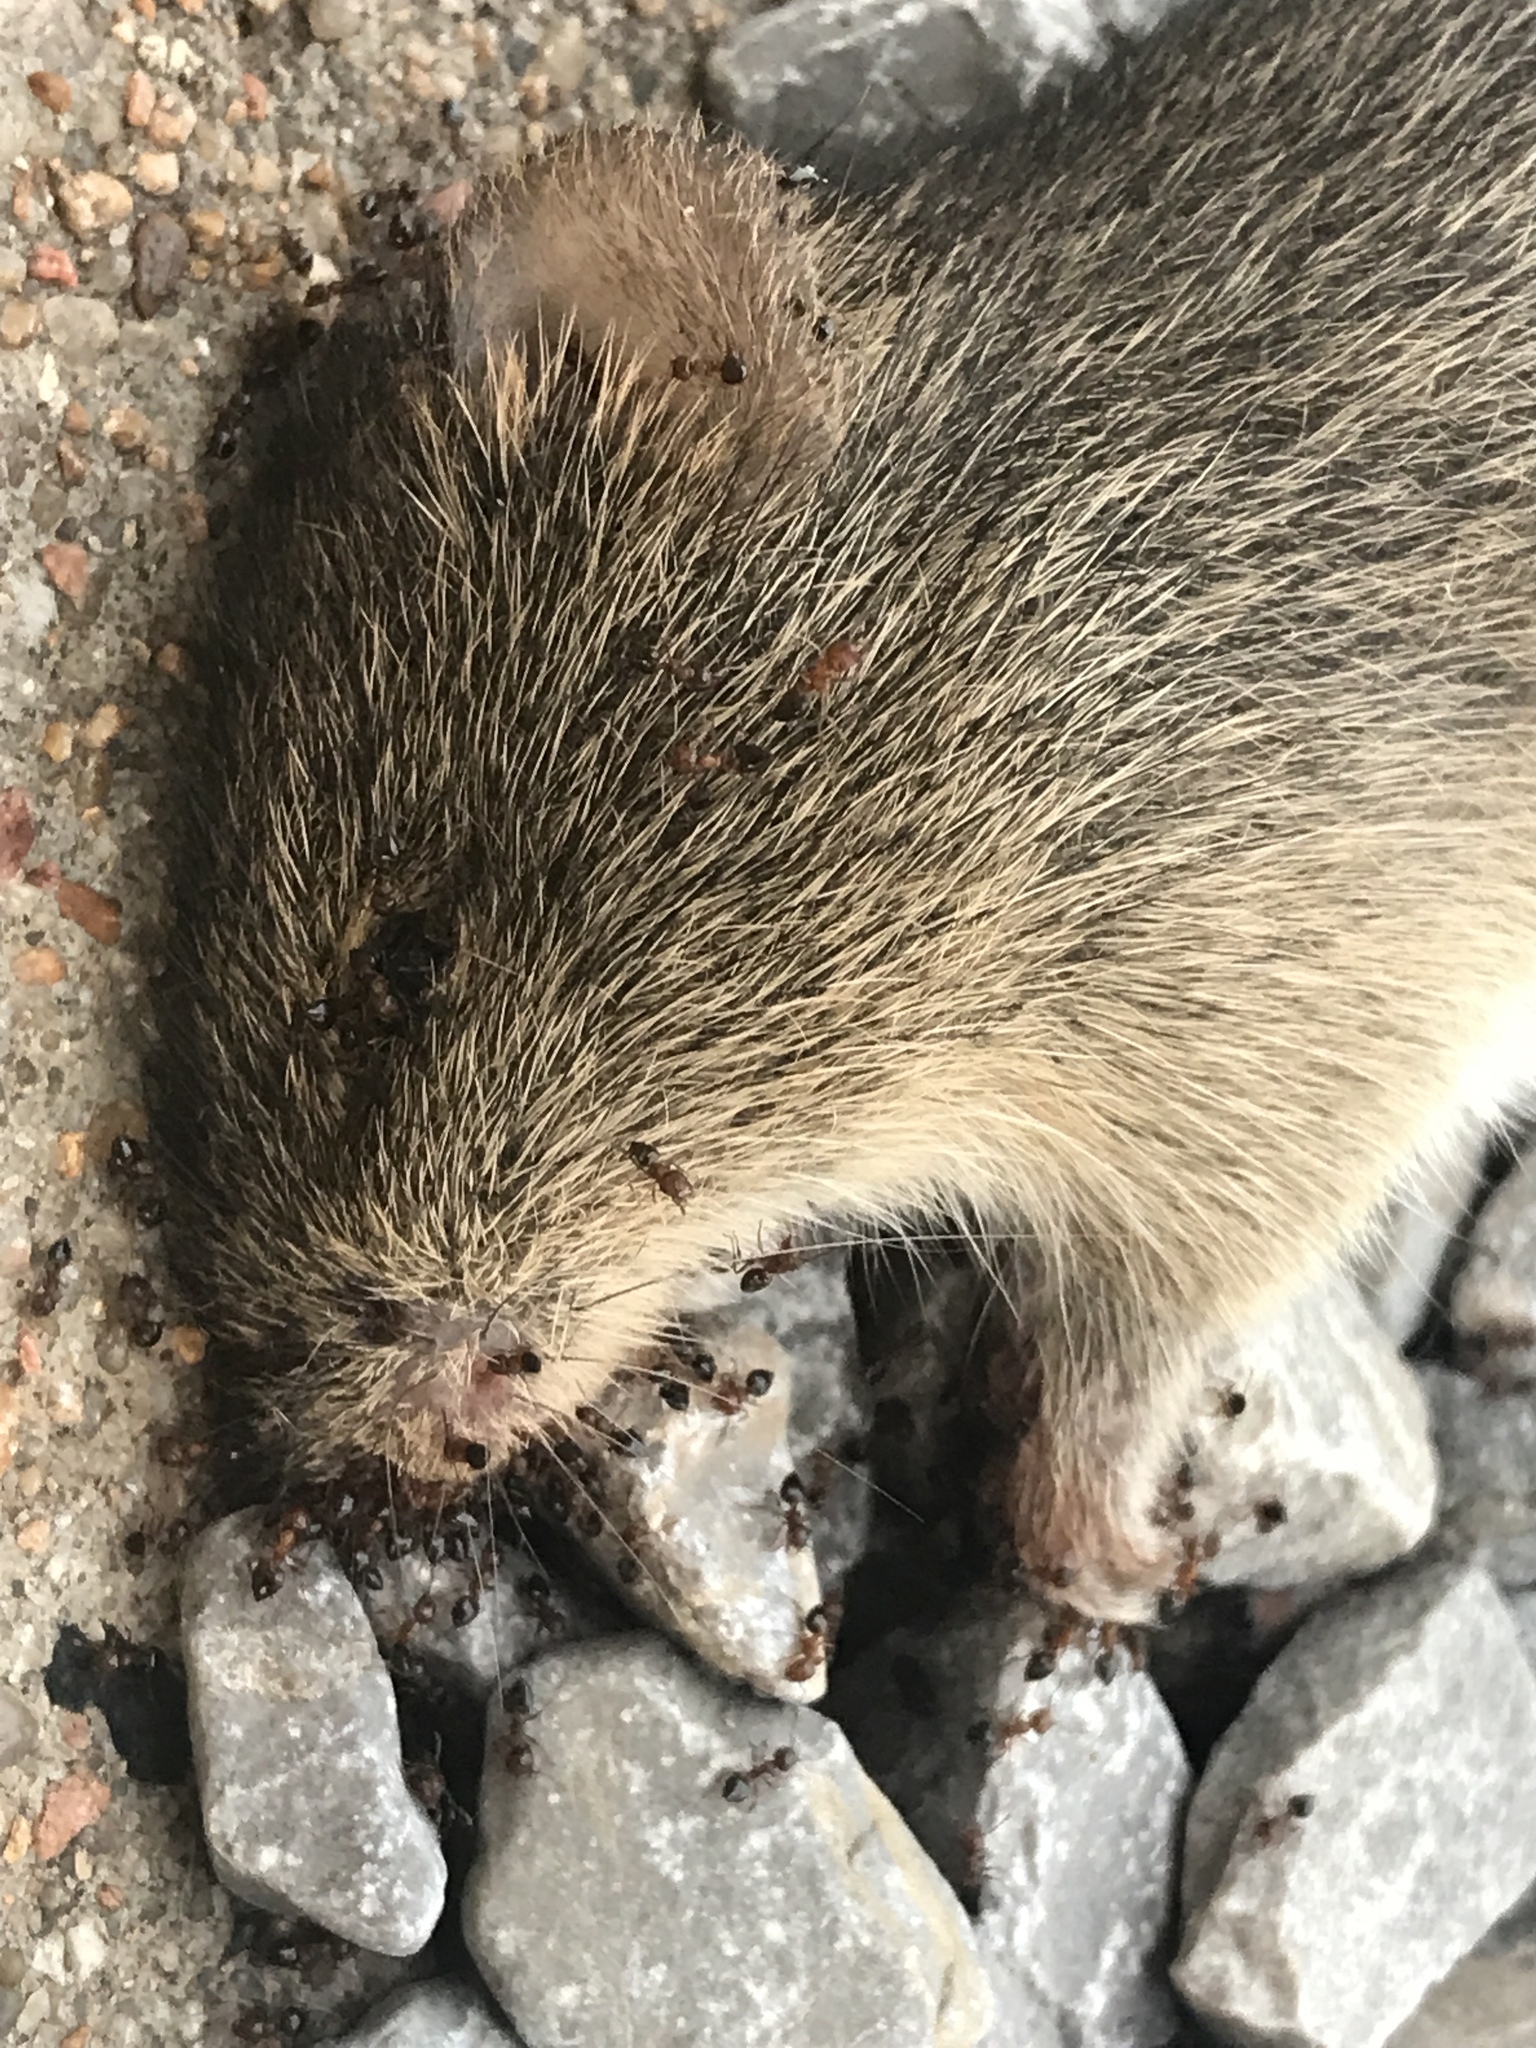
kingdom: Animalia
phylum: Chordata
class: Mammalia
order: Rodentia
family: Cricetidae
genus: Sigmodon
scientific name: Sigmodon hispidus
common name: Hispid cotton rat
